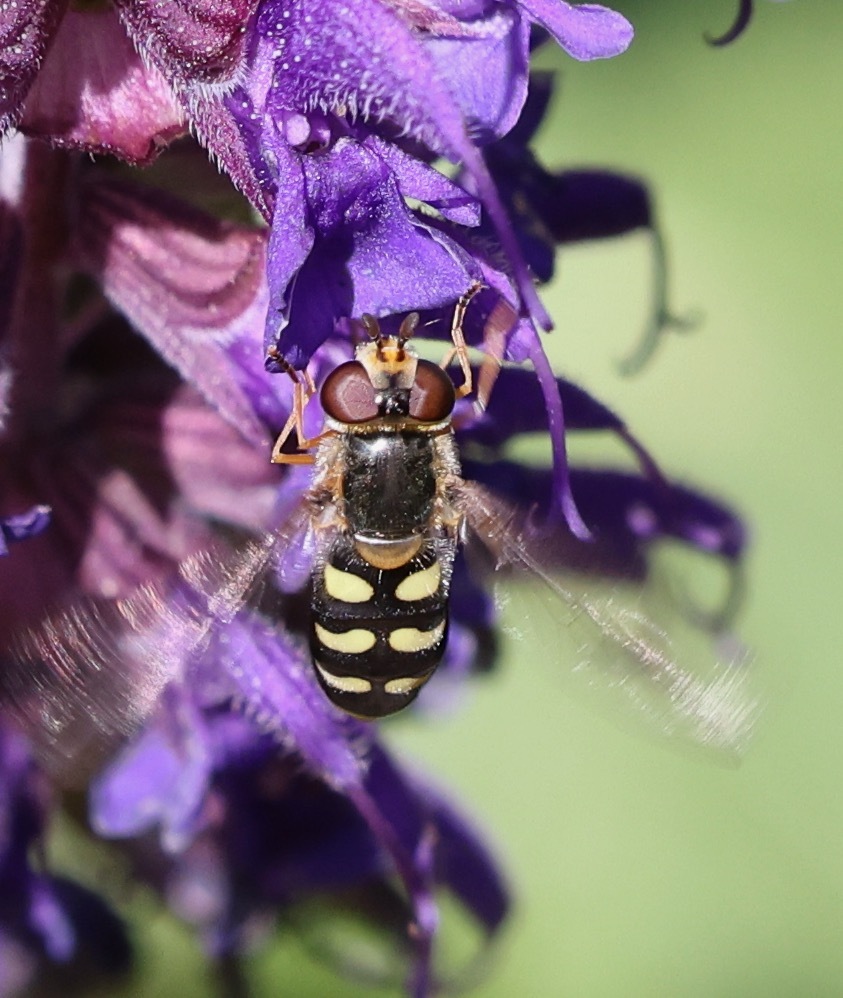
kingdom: Animalia
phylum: Arthropoda
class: Insecta
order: Diptera
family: Syrphidae
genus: Eupeodes
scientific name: Eupeodes luniger
